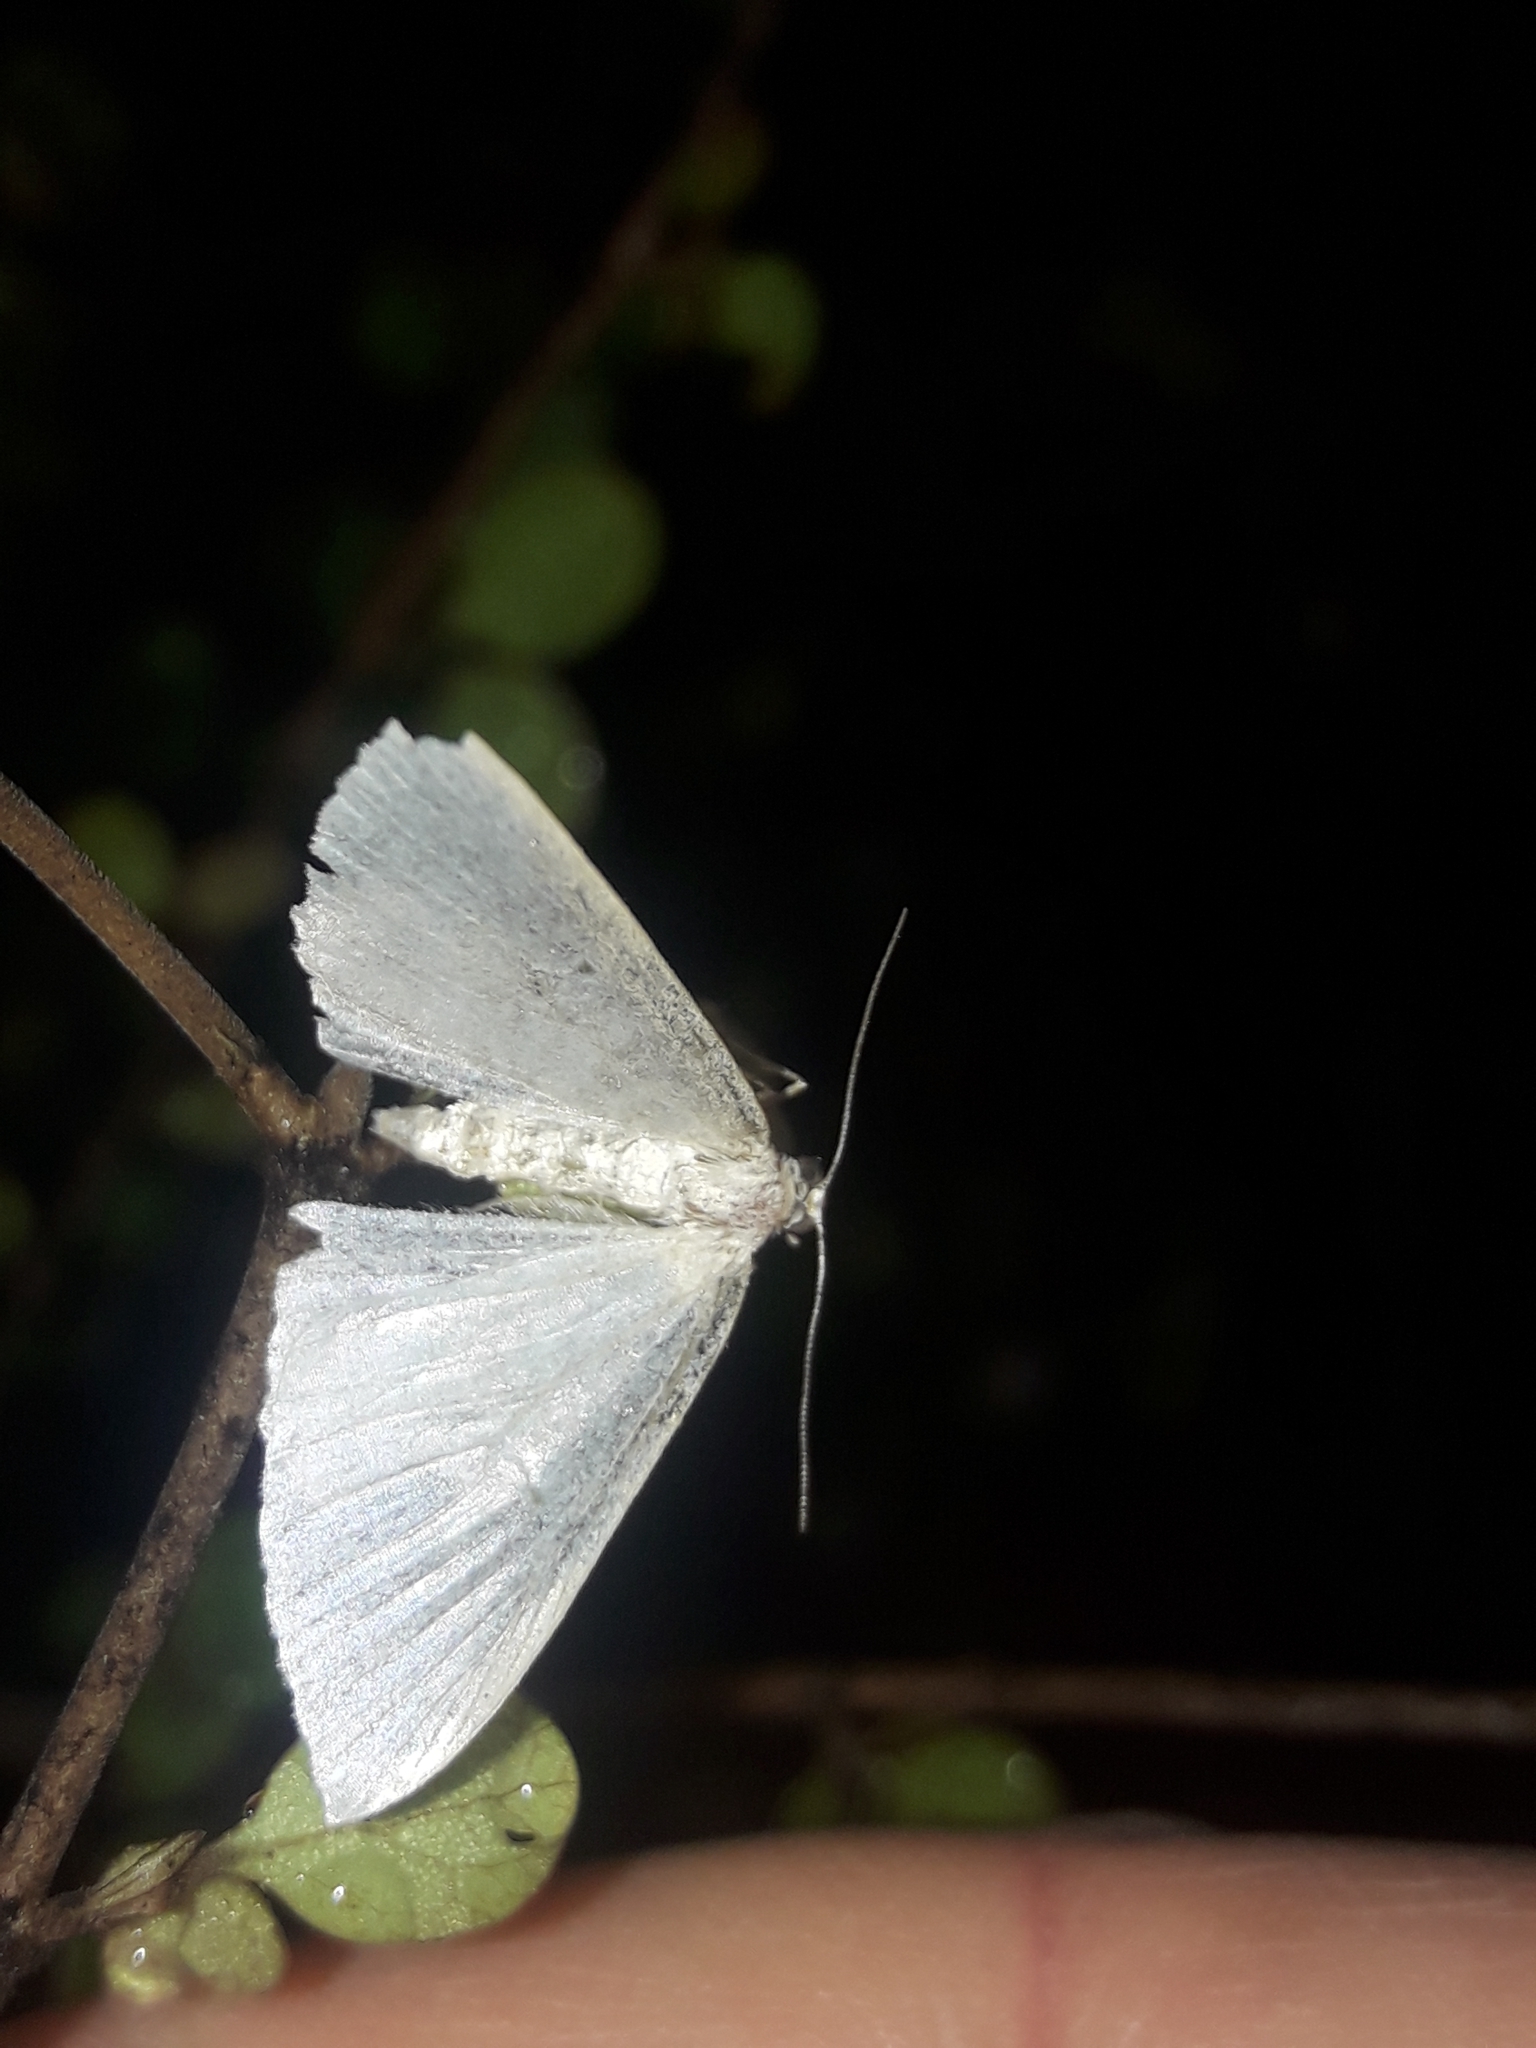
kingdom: Animalia
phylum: Arthropoda
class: Insecta
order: Lepidoptera
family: Geometridae
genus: Poecilasthena
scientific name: Poecilasthena pulchraria
